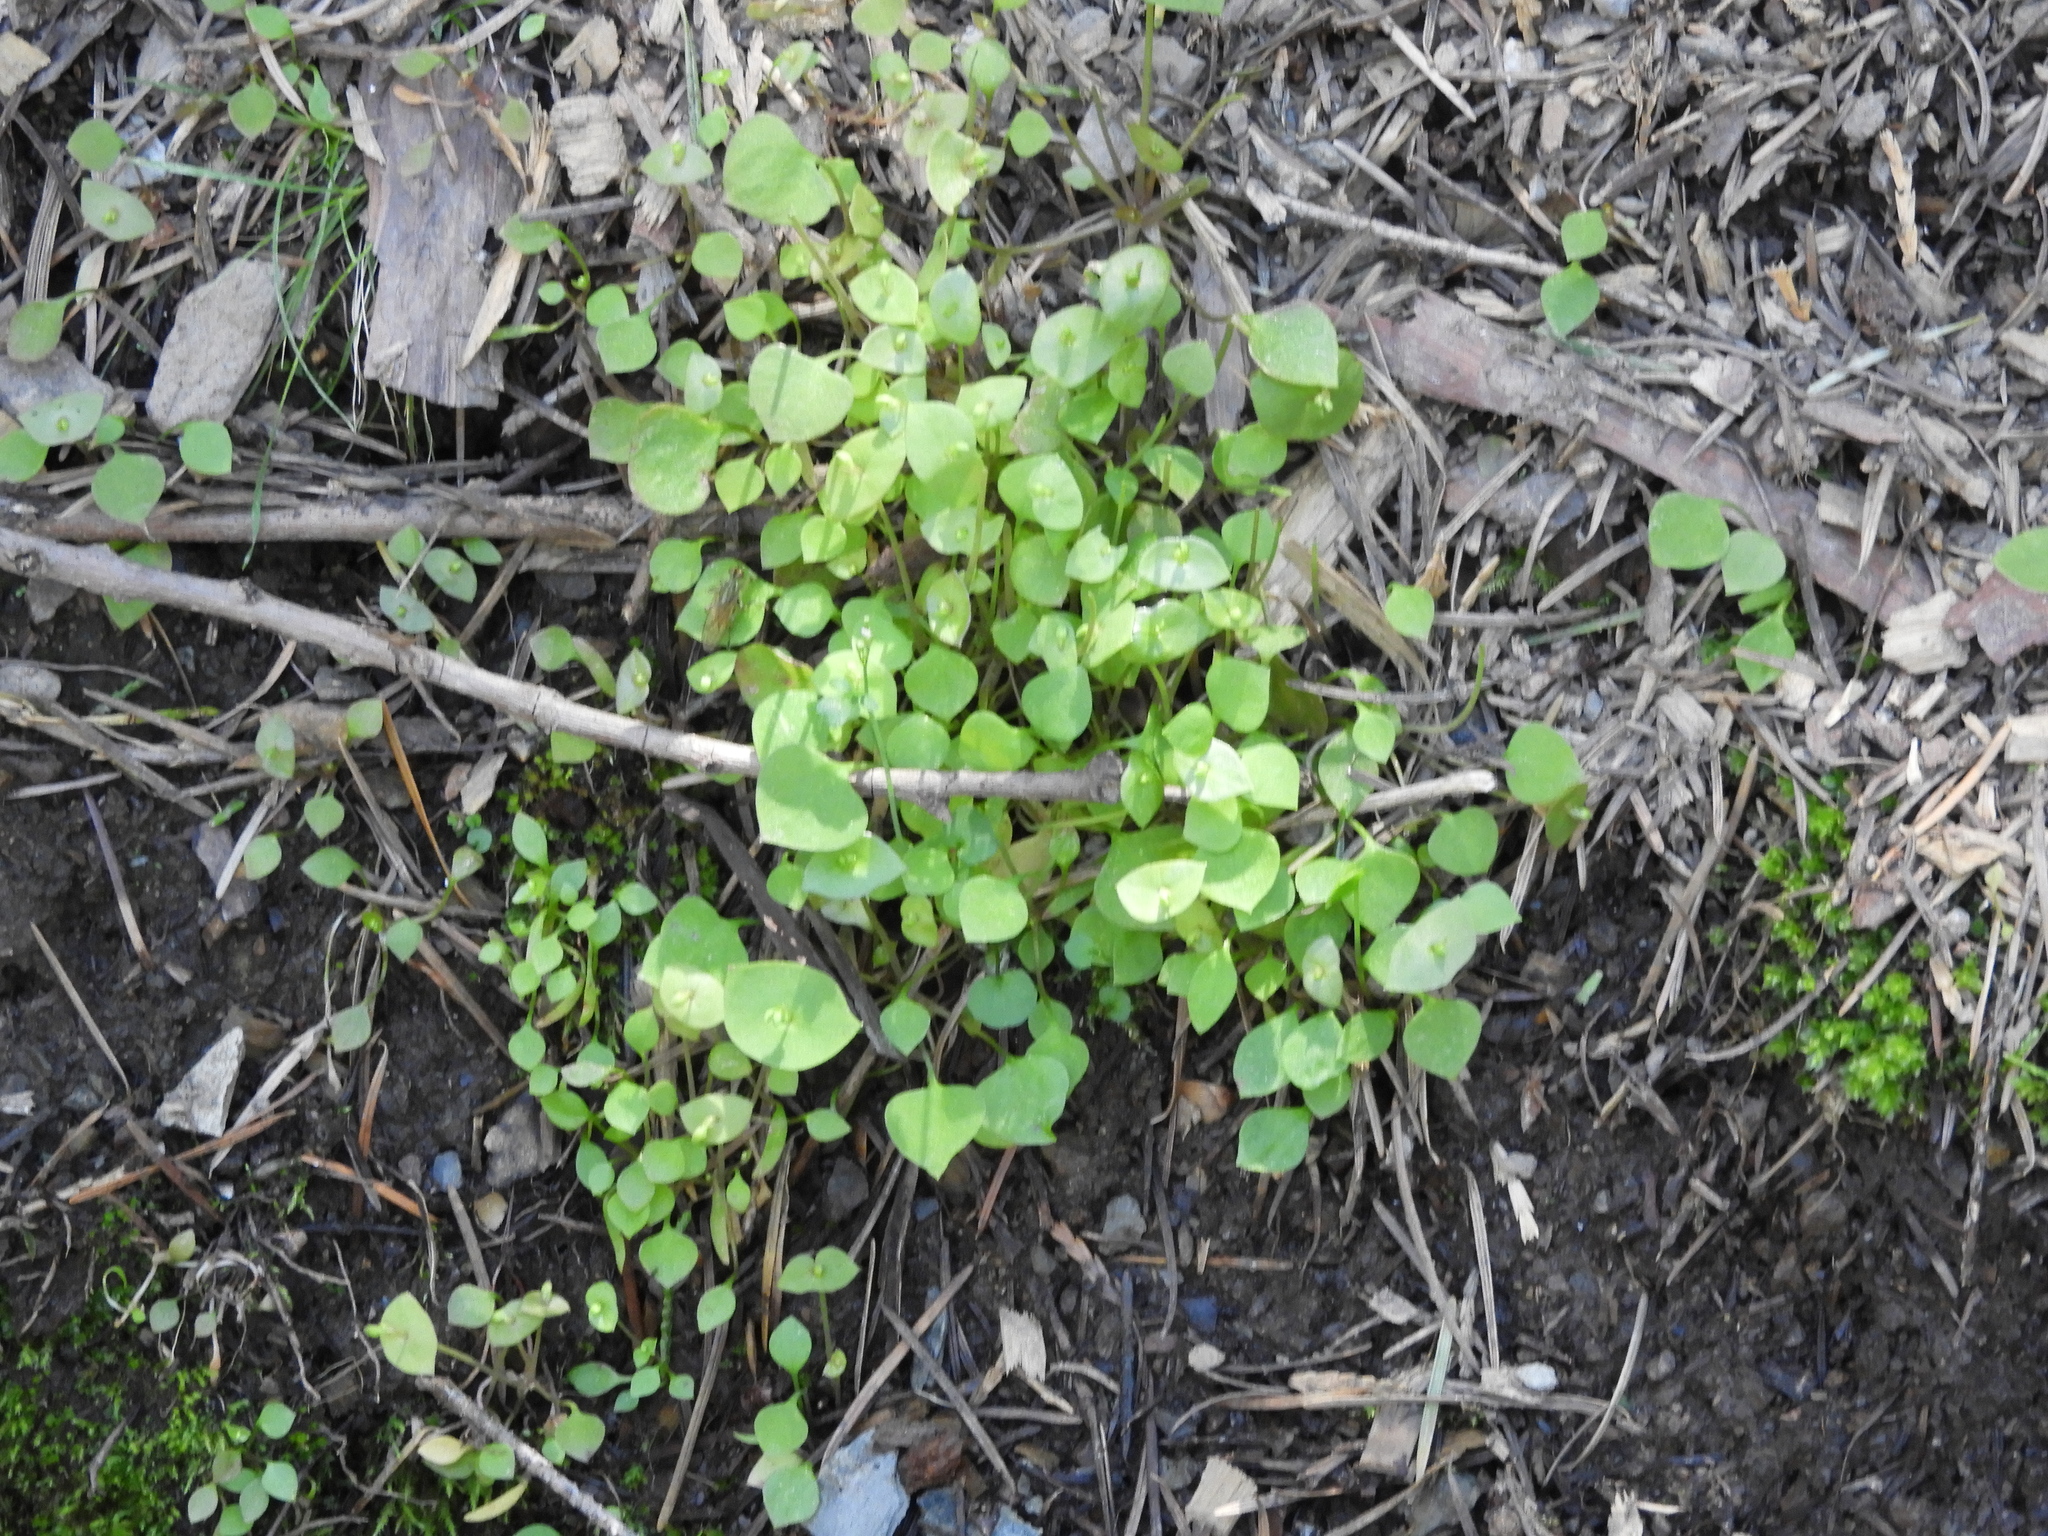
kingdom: Plantae
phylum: Tracheophyta
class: Magnoliopsida
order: Caryophyllales
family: Montiaceae
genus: Claytonia
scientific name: Claytonia perfoliata
